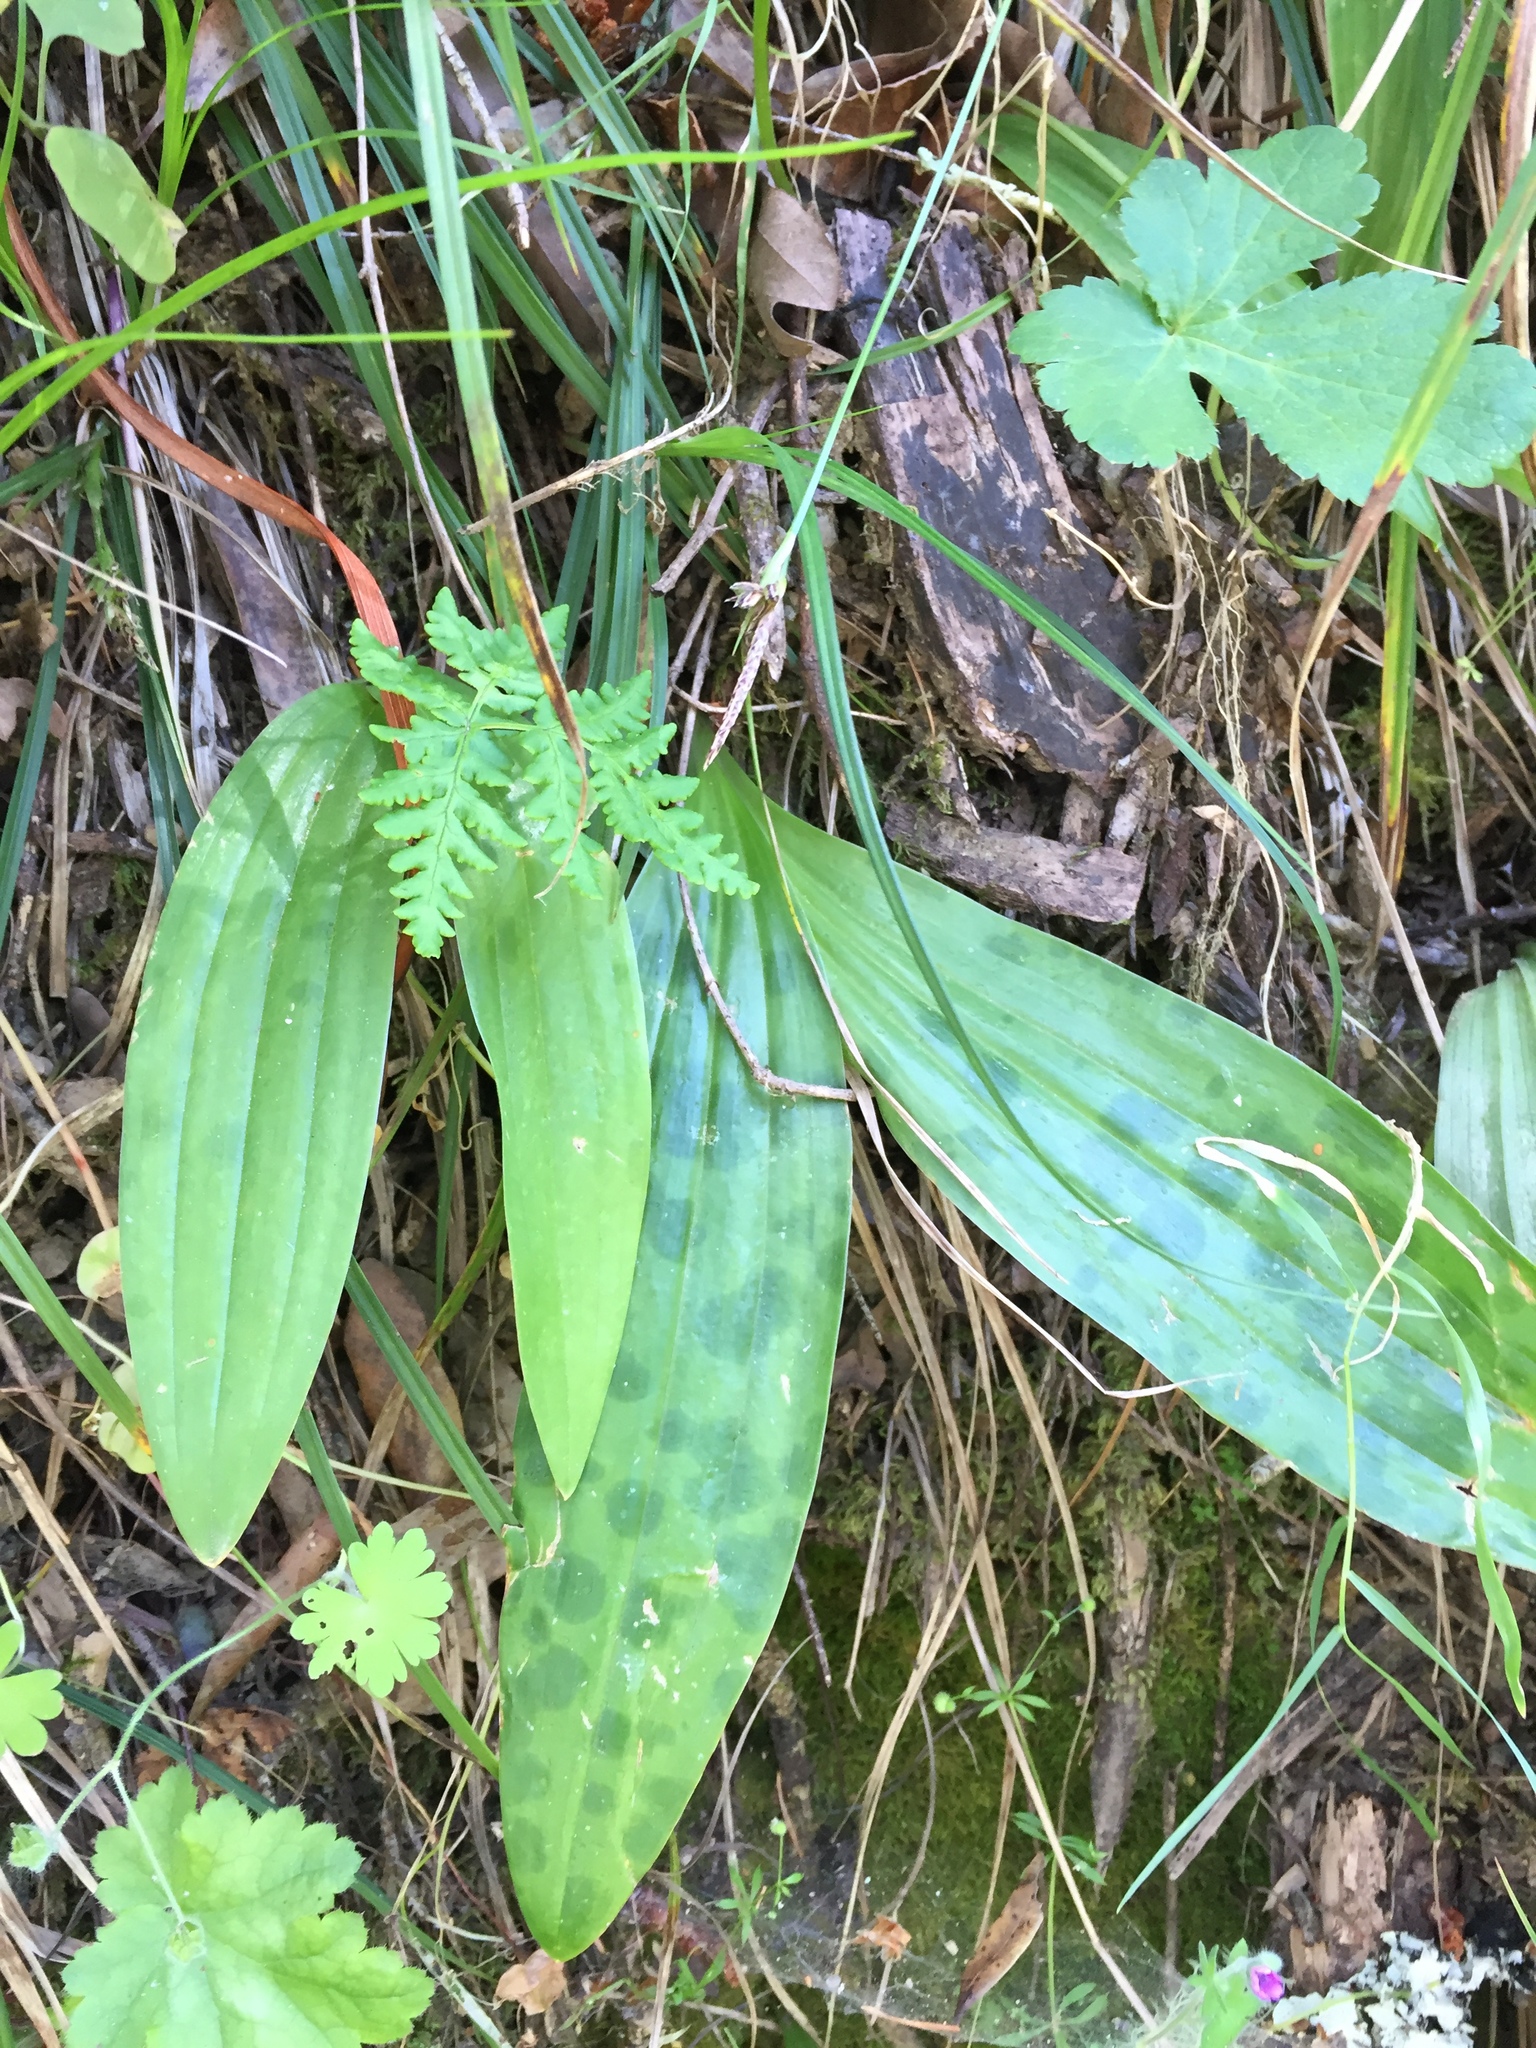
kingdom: Plantae
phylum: Tracheophyta
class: Liliopsida
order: Liliales
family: Liliaceae
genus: Scoliopus
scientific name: Scoliopus bigelovii
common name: Foetid adder's-tongue
